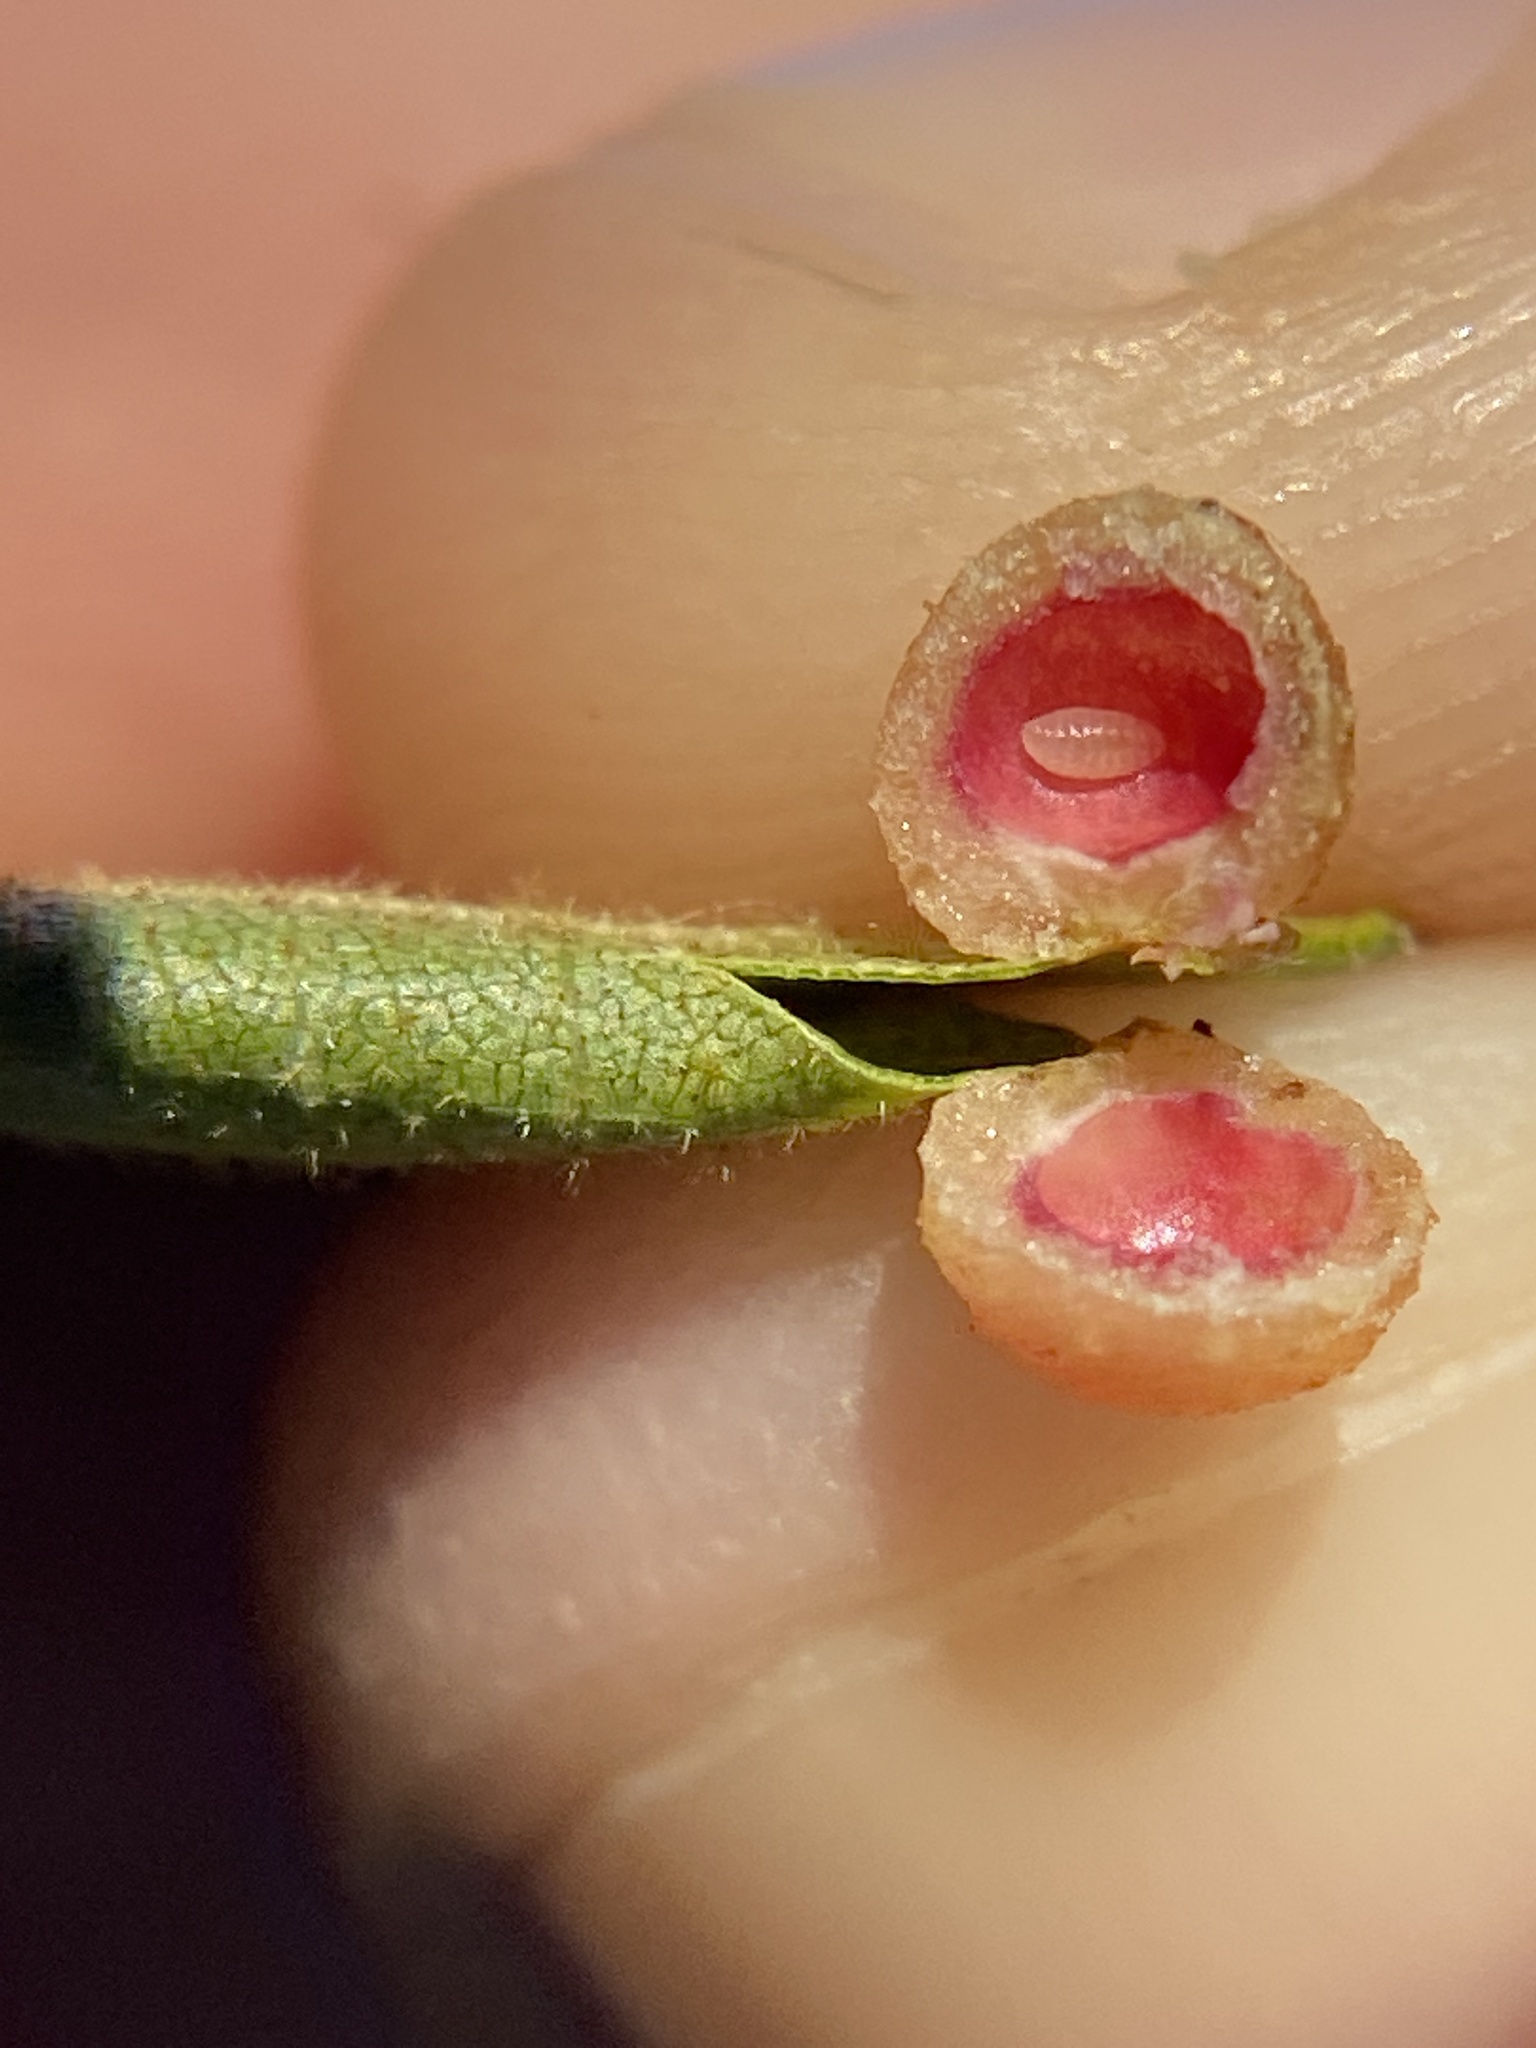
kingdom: Animalia
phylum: Arthropoda
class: Insecta
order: Diptera
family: Cecidomyiidae
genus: Caryomyia
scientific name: Caryomyia tuberculata
